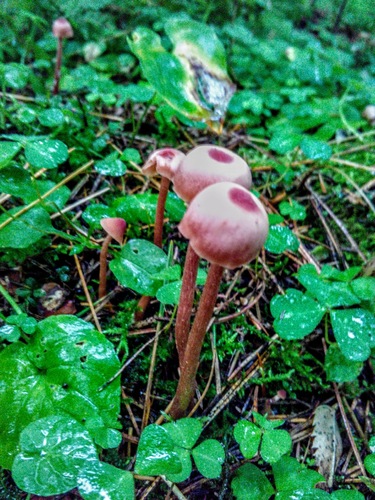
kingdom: Fungi
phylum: Basidiomycota
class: Agaricomycetes
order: Agaricales
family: Hydnangiaceae
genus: Laccaria
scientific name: Laccaria proxima
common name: Scurfy deceiver
